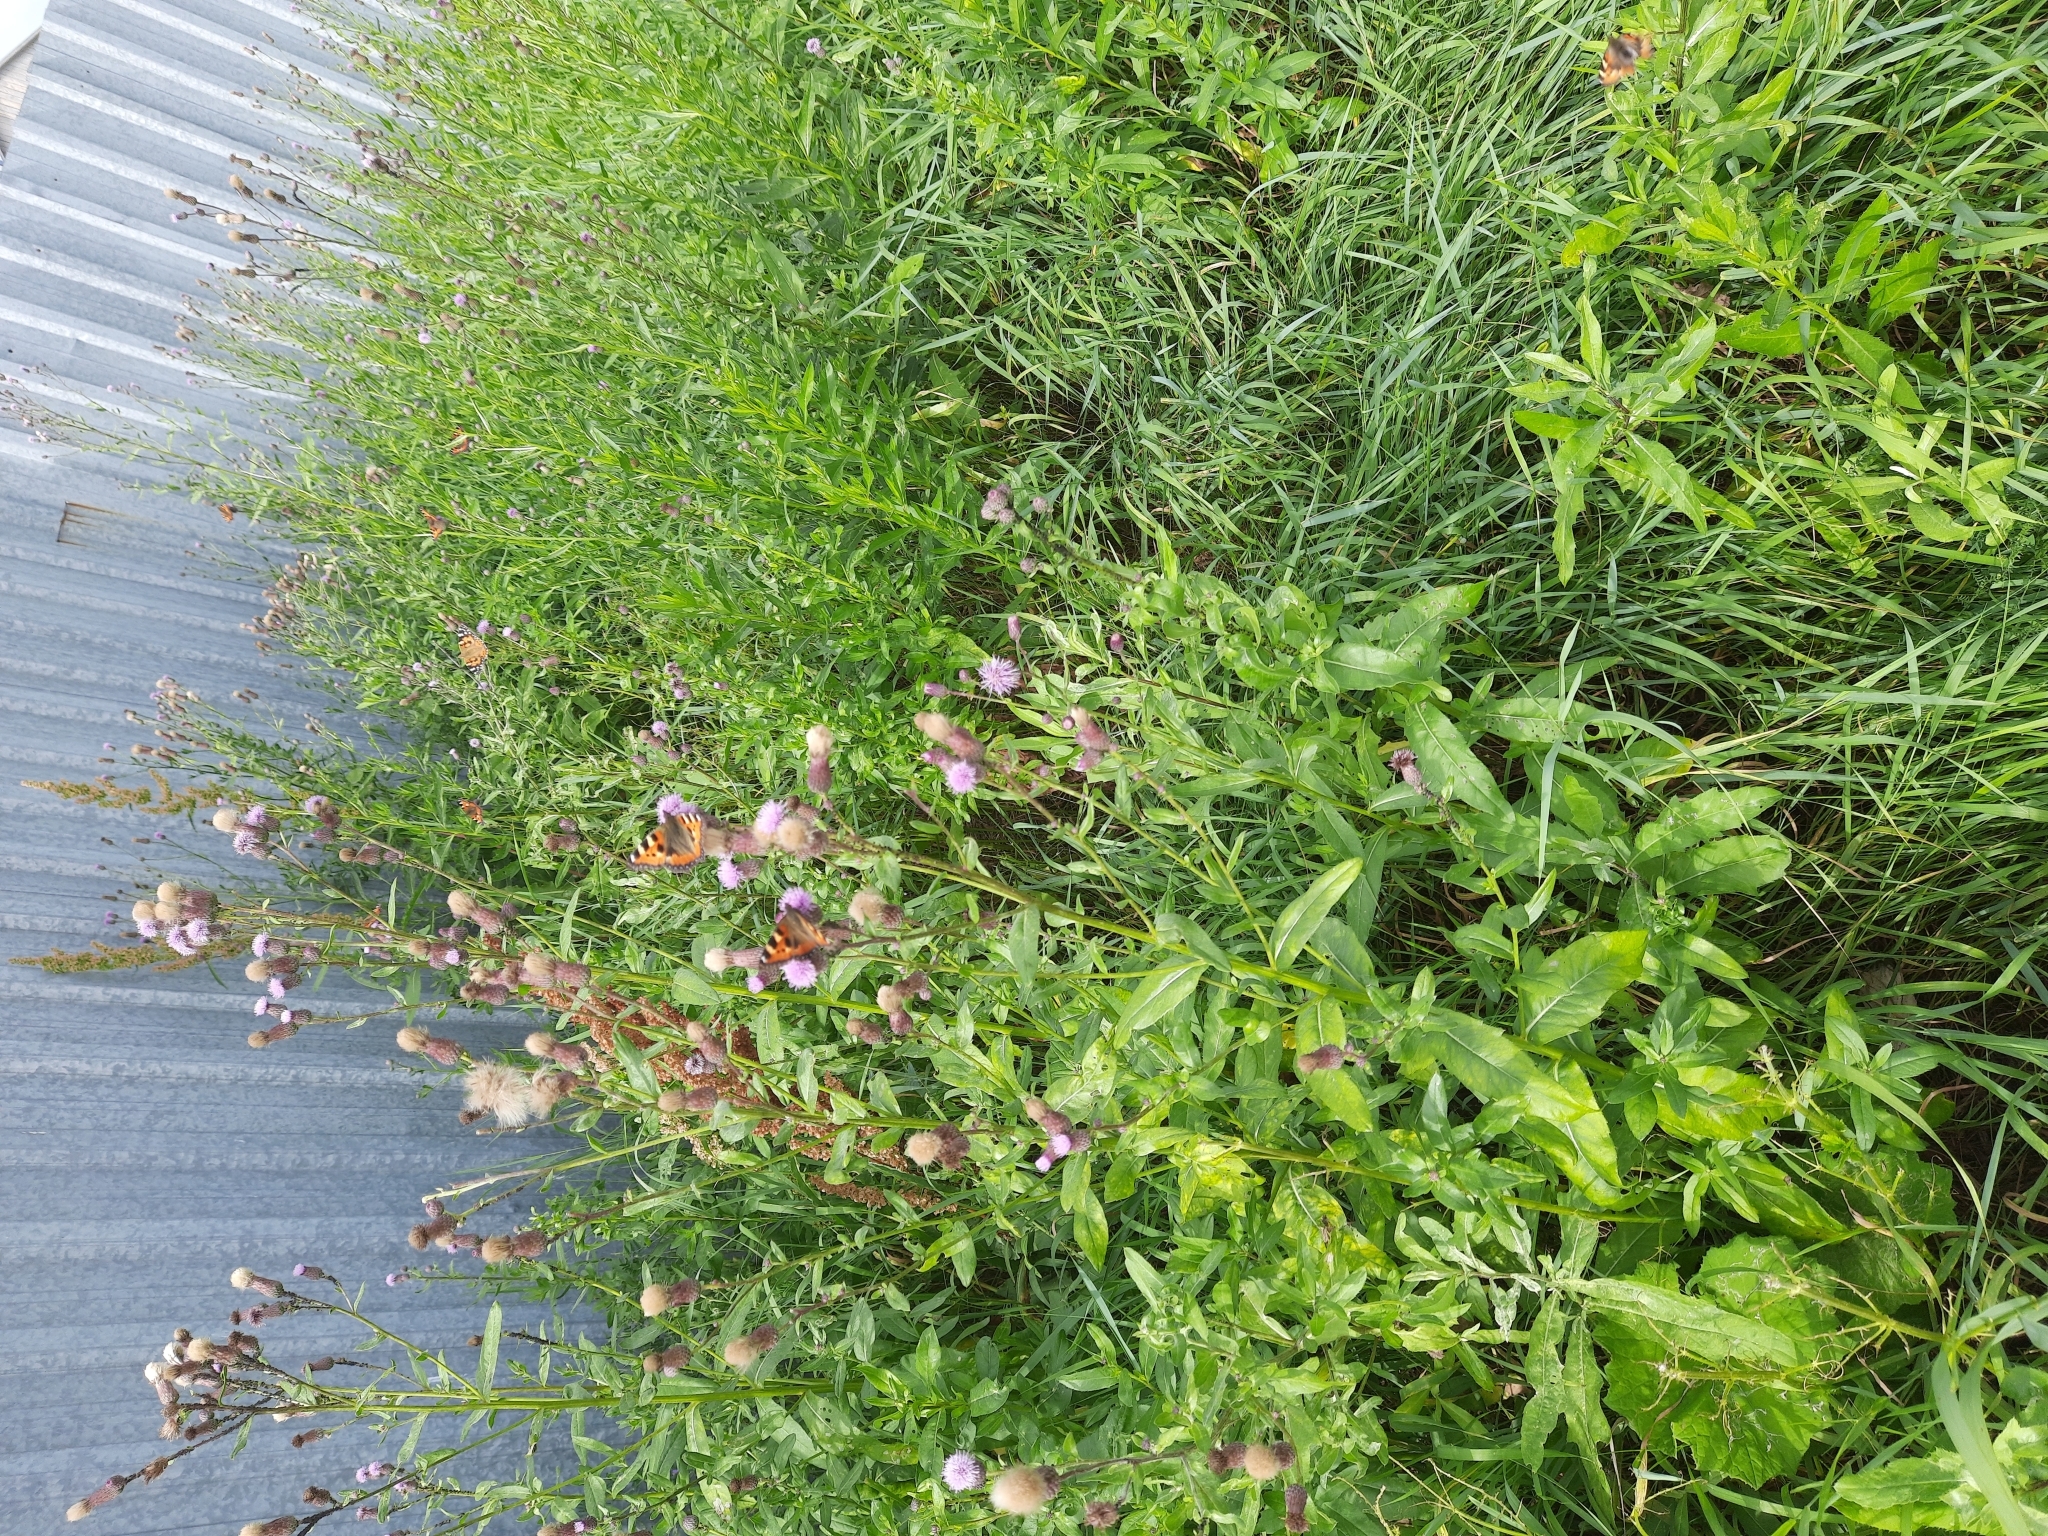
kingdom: Plantae
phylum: Tracheophyta
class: Magnoliopsida
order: Asterales
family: Asteraceae
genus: Cirsium
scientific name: Cirsium arvense
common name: Creeping thistle
